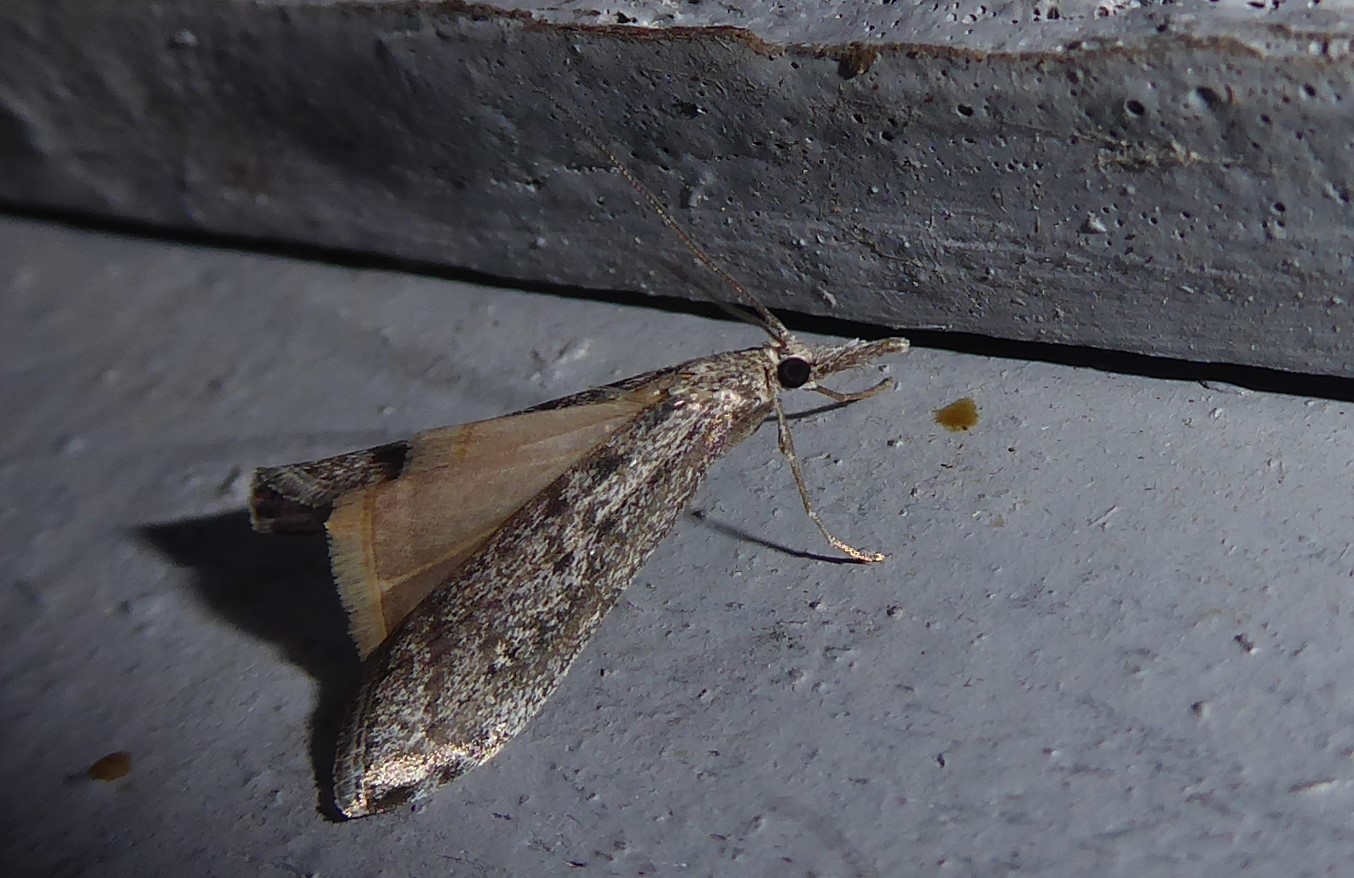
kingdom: Animalia
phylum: Arthropoda
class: Insecta
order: Lepidoptera
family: Crambidae
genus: Orocrambus
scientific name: Orocrambus cyclopicus
